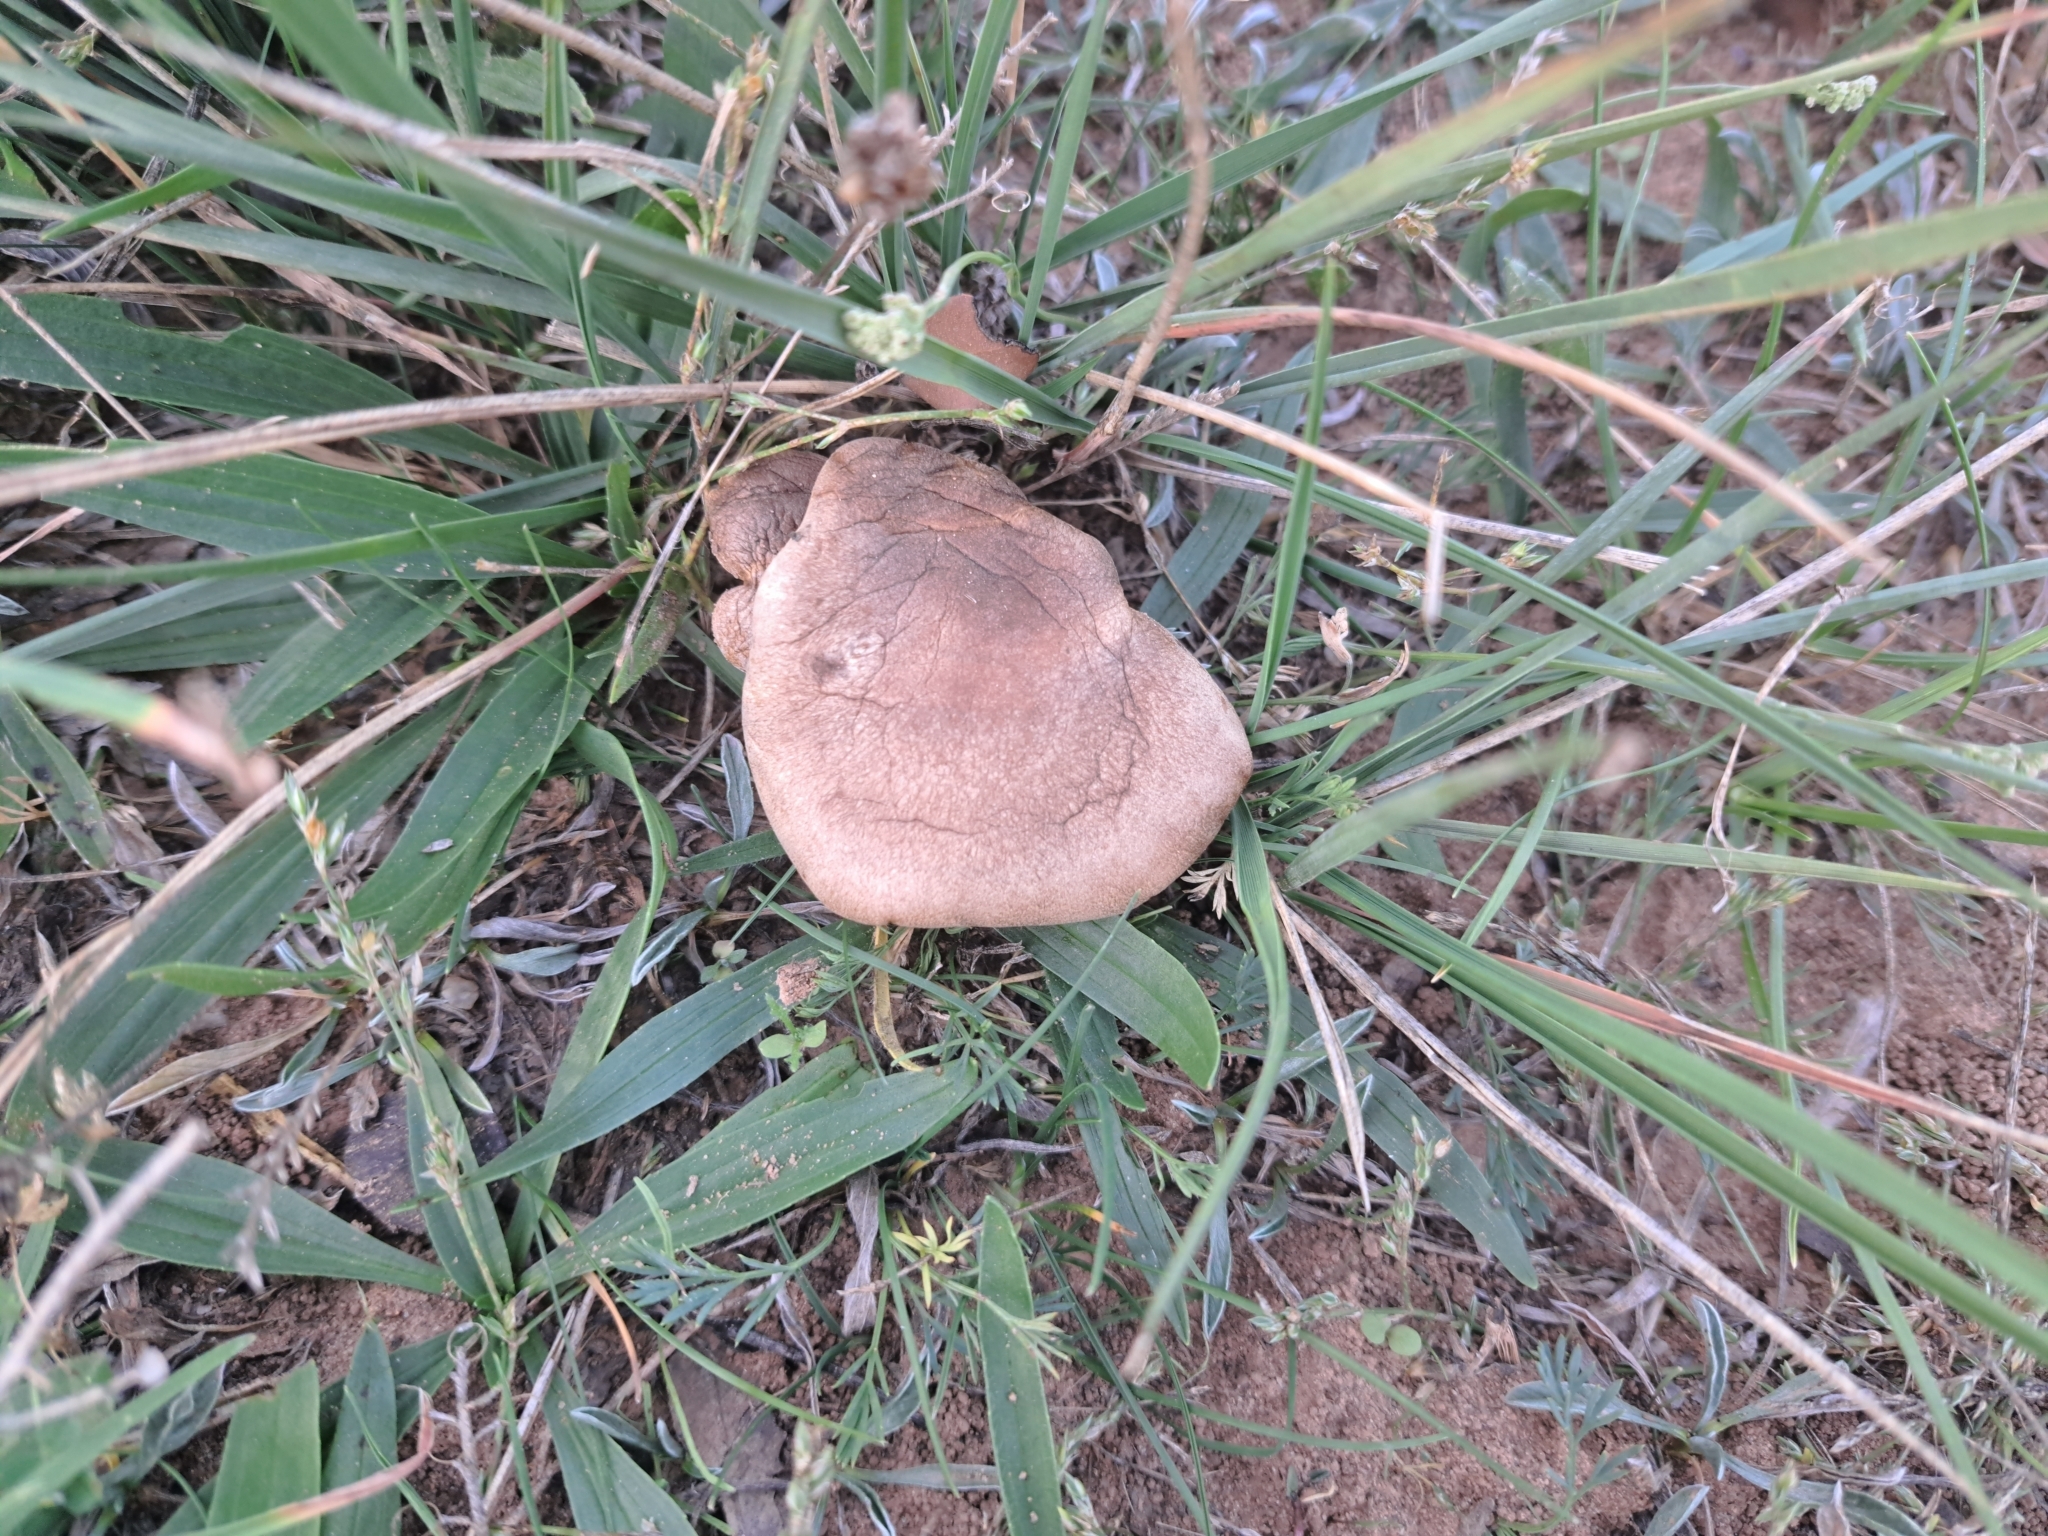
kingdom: Fungi
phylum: Basidiomycota
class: Agaricomycetes
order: Agaricales
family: Pleurotaceae
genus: Pleurotus
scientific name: Pleurotus eryngii
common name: King oyster
